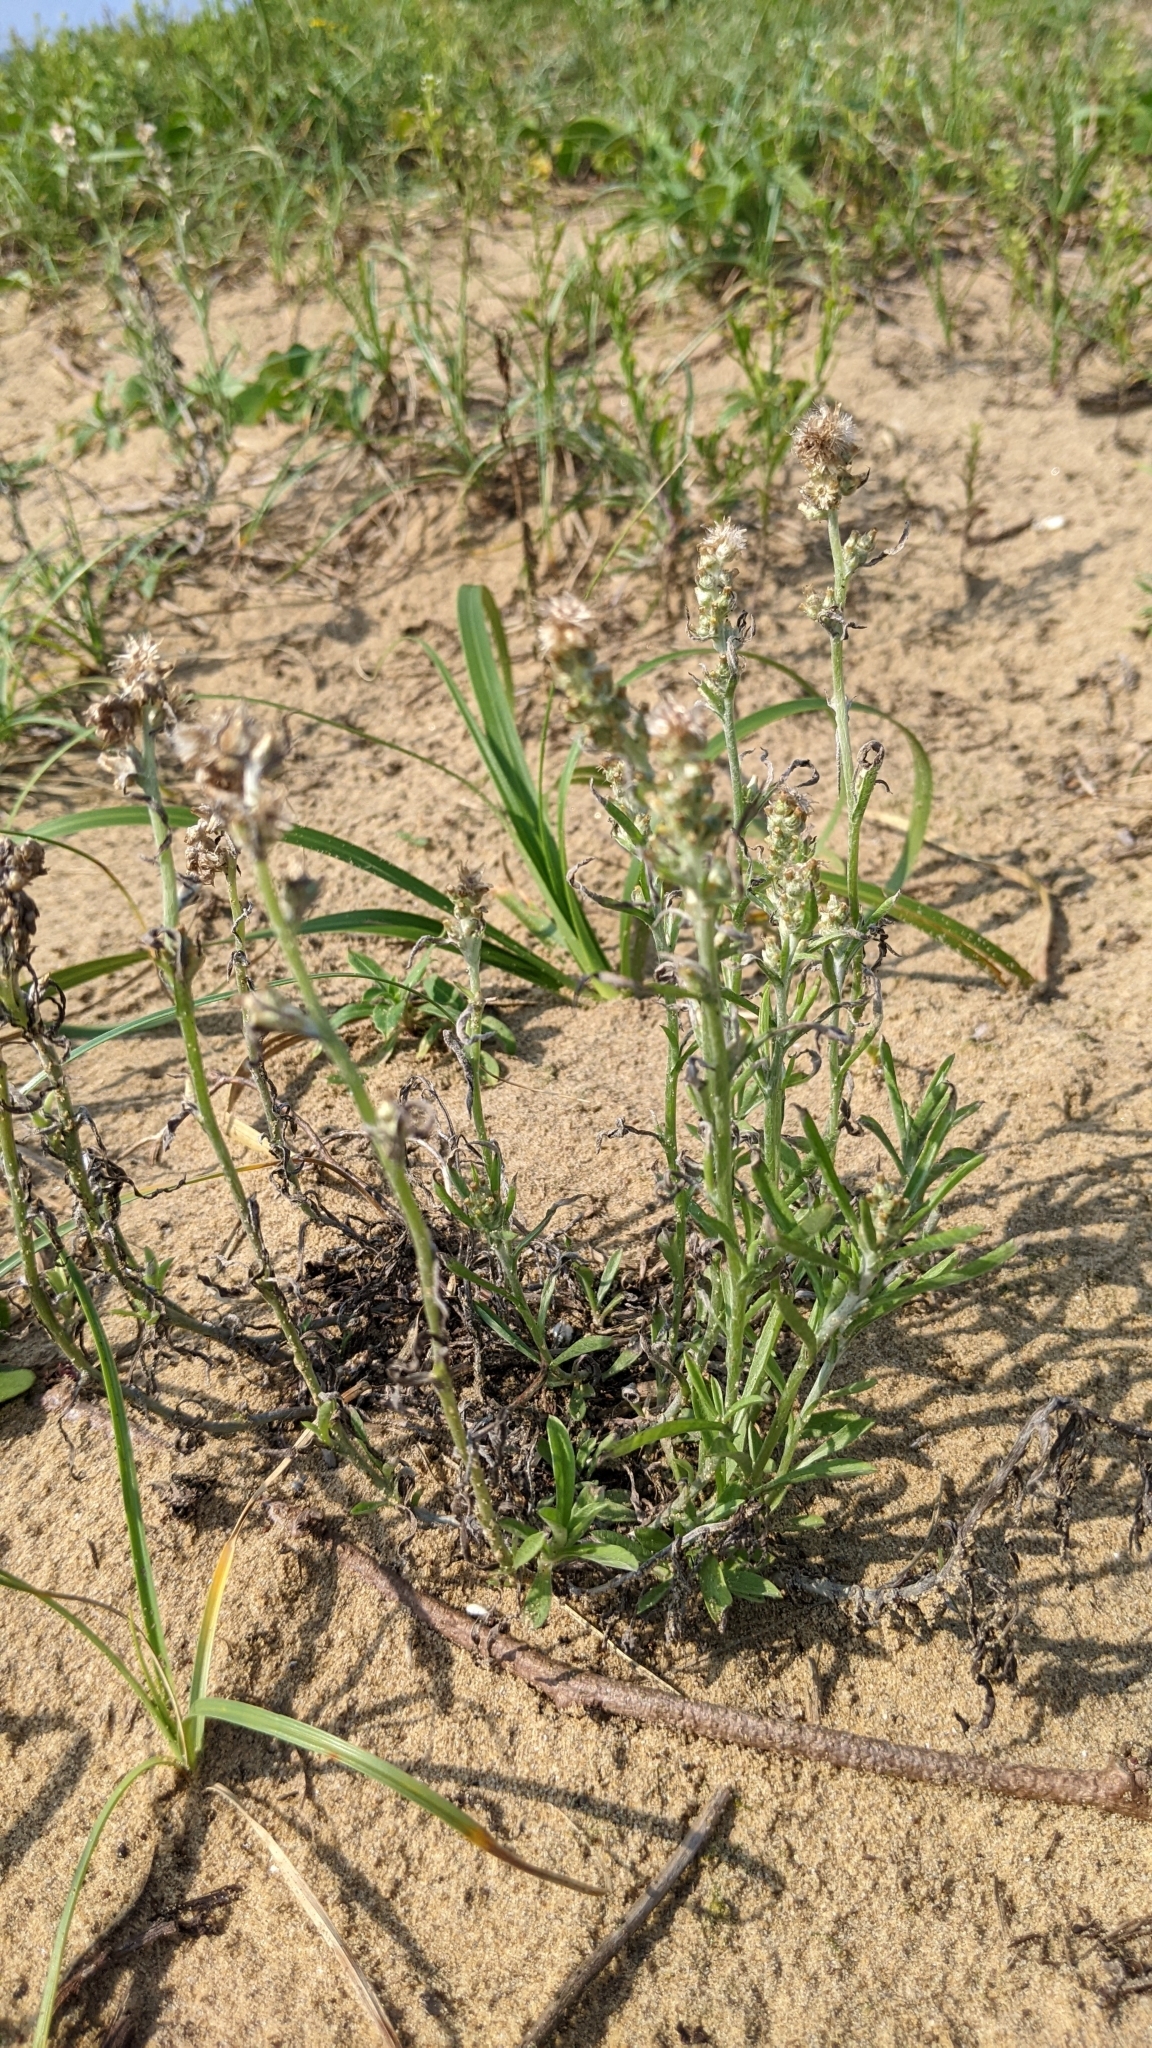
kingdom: Plantae
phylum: Tracheophyta
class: Magnoliopsida
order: Asterales
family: Asteraceae
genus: Gamochaeta
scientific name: Gamochaeta calviceps
